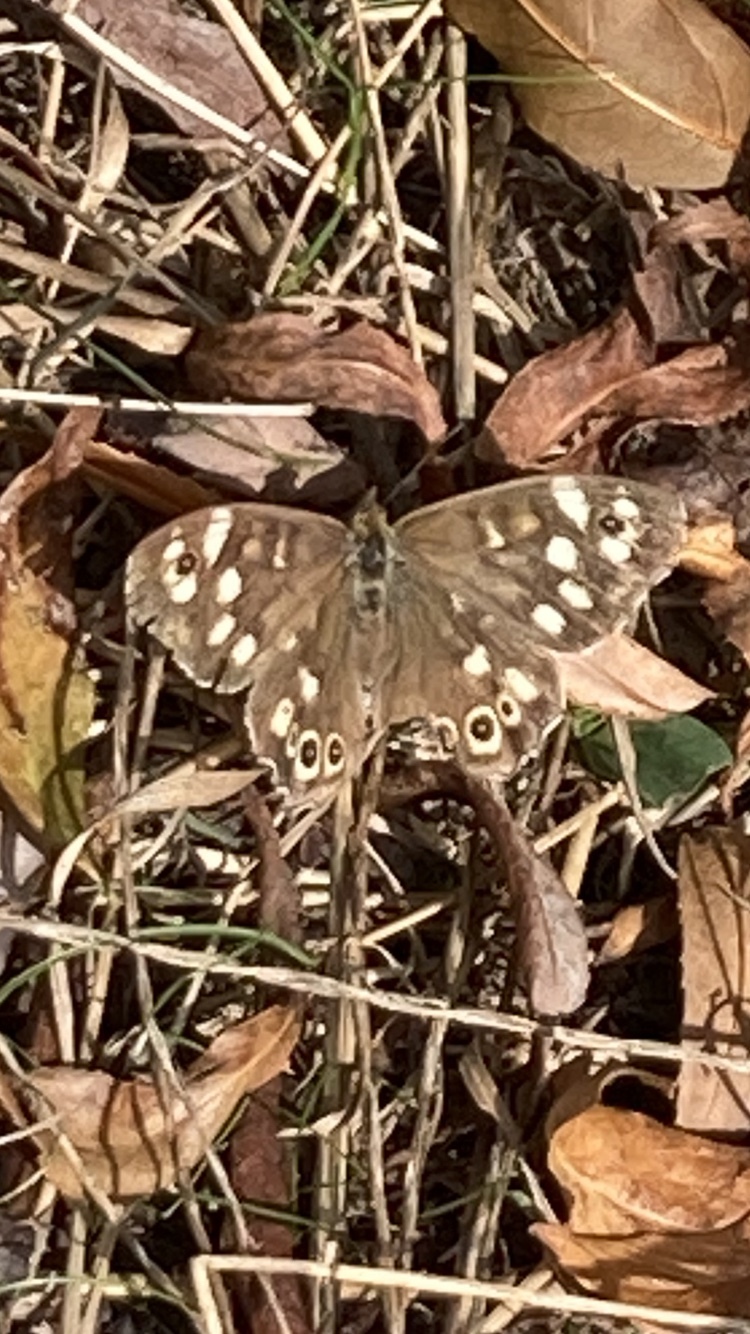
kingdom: Animalia
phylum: Arthropoda
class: Insecta
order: Lepidoptera
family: Nymphalidae
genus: Pararge
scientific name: Pararge aegeria
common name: Speckled wood
